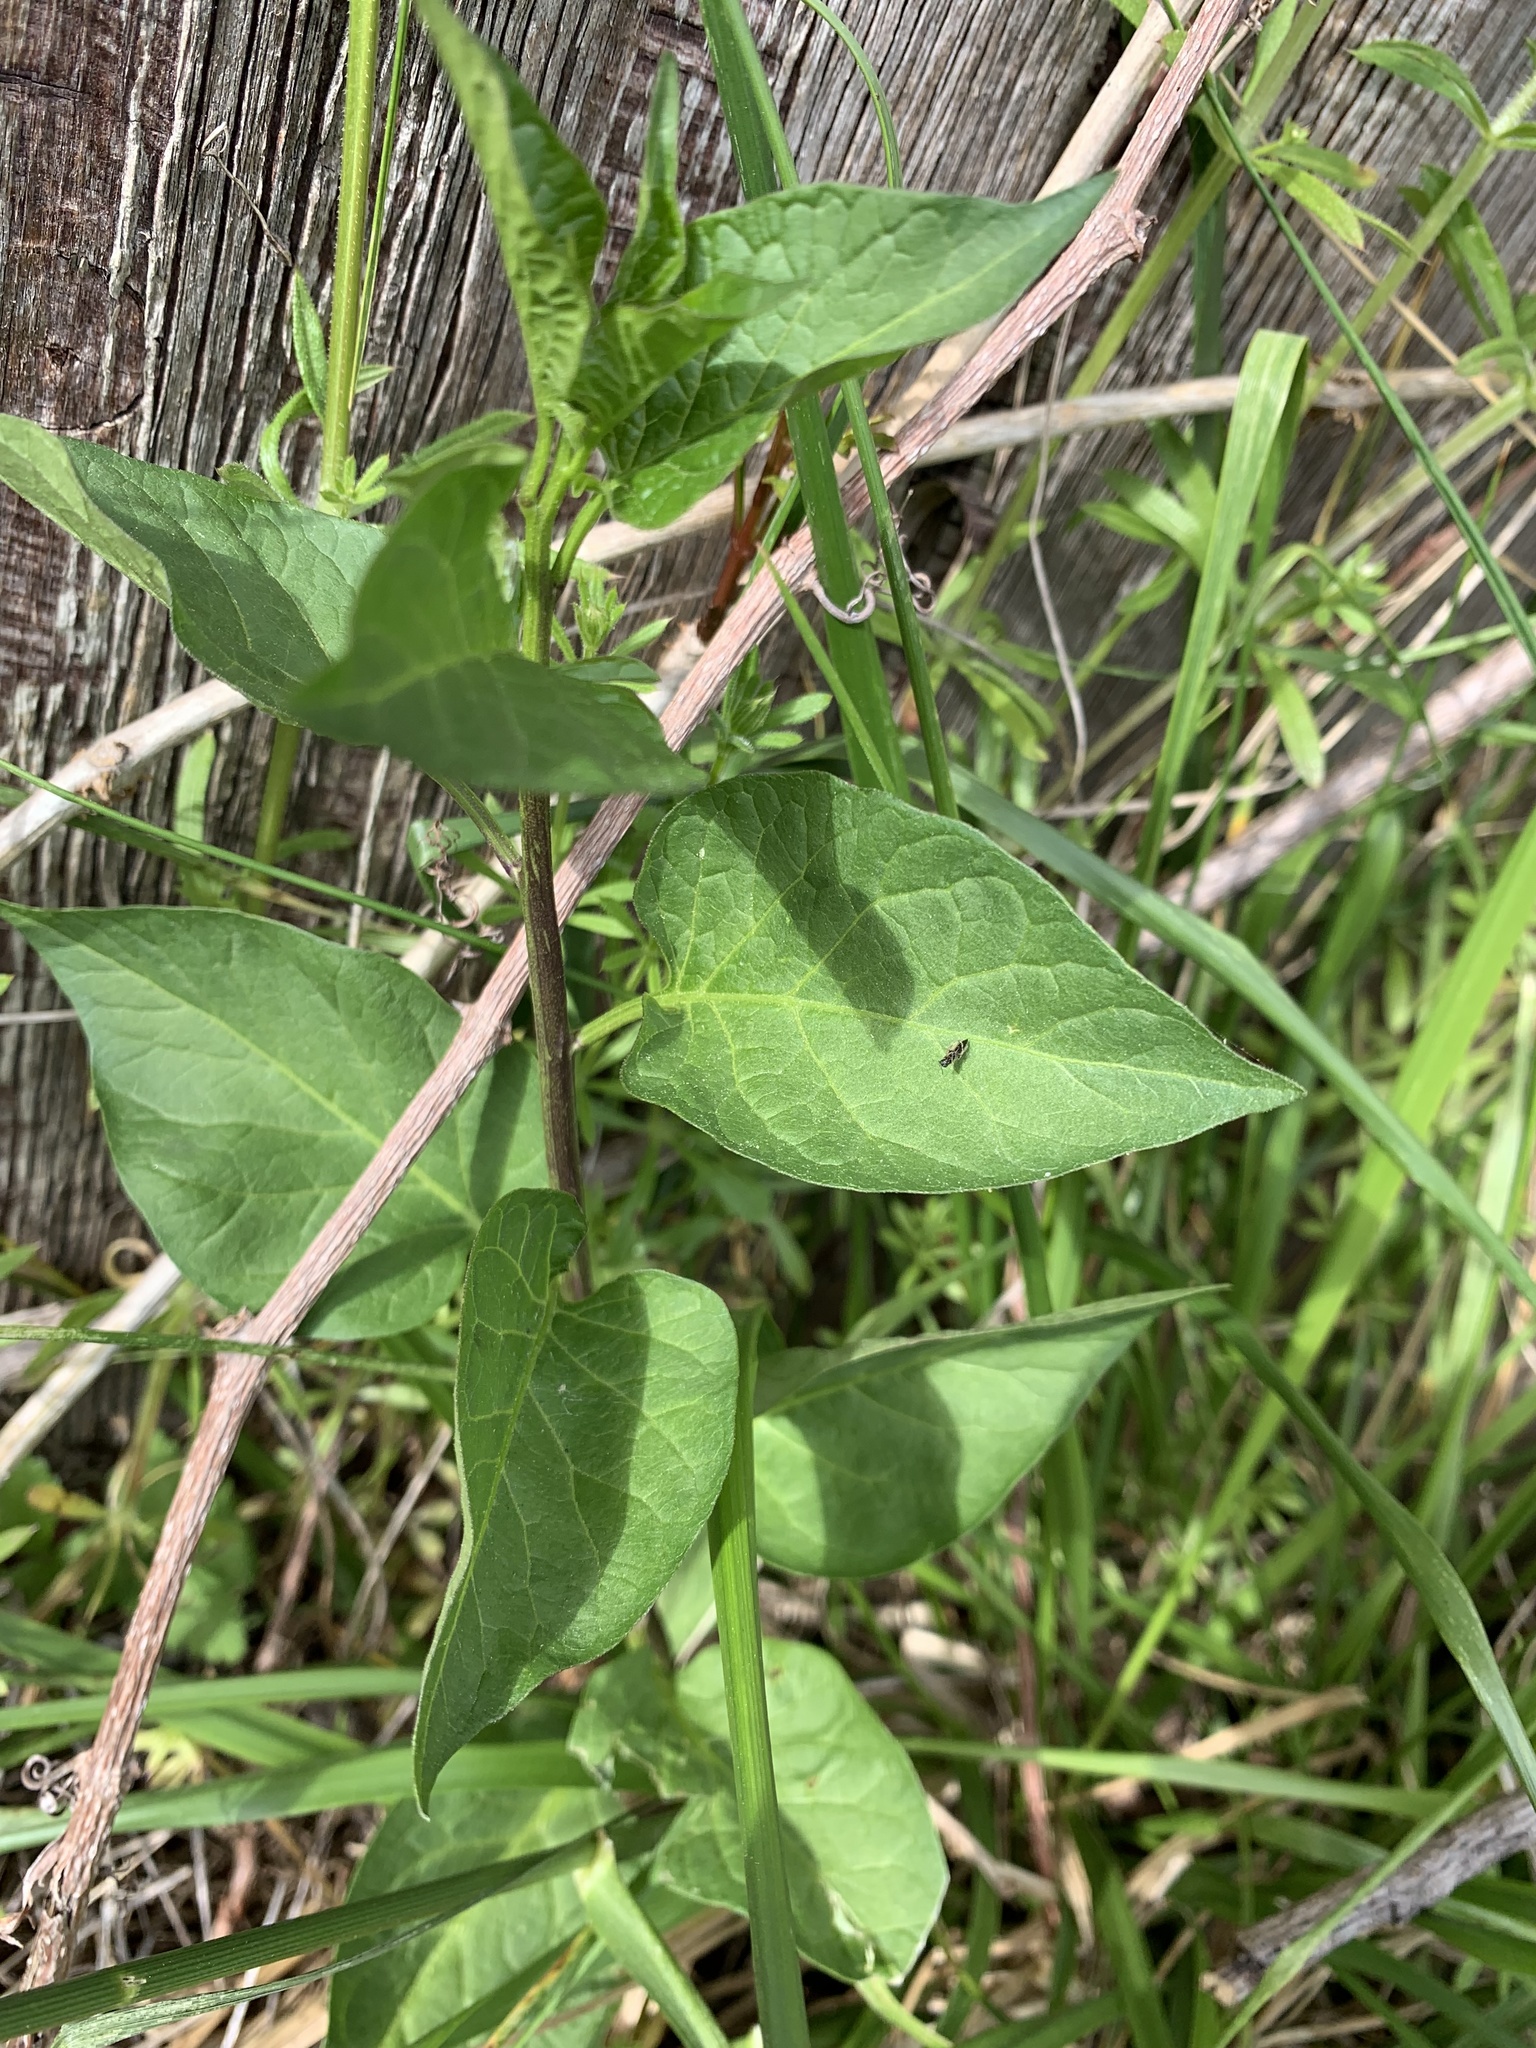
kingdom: Plantae
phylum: Tracheophyta
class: Magnoliopsida
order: Solanales
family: Solanaceae
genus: Solanum
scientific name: Solanum dulcamara
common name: Climbing nightshade
